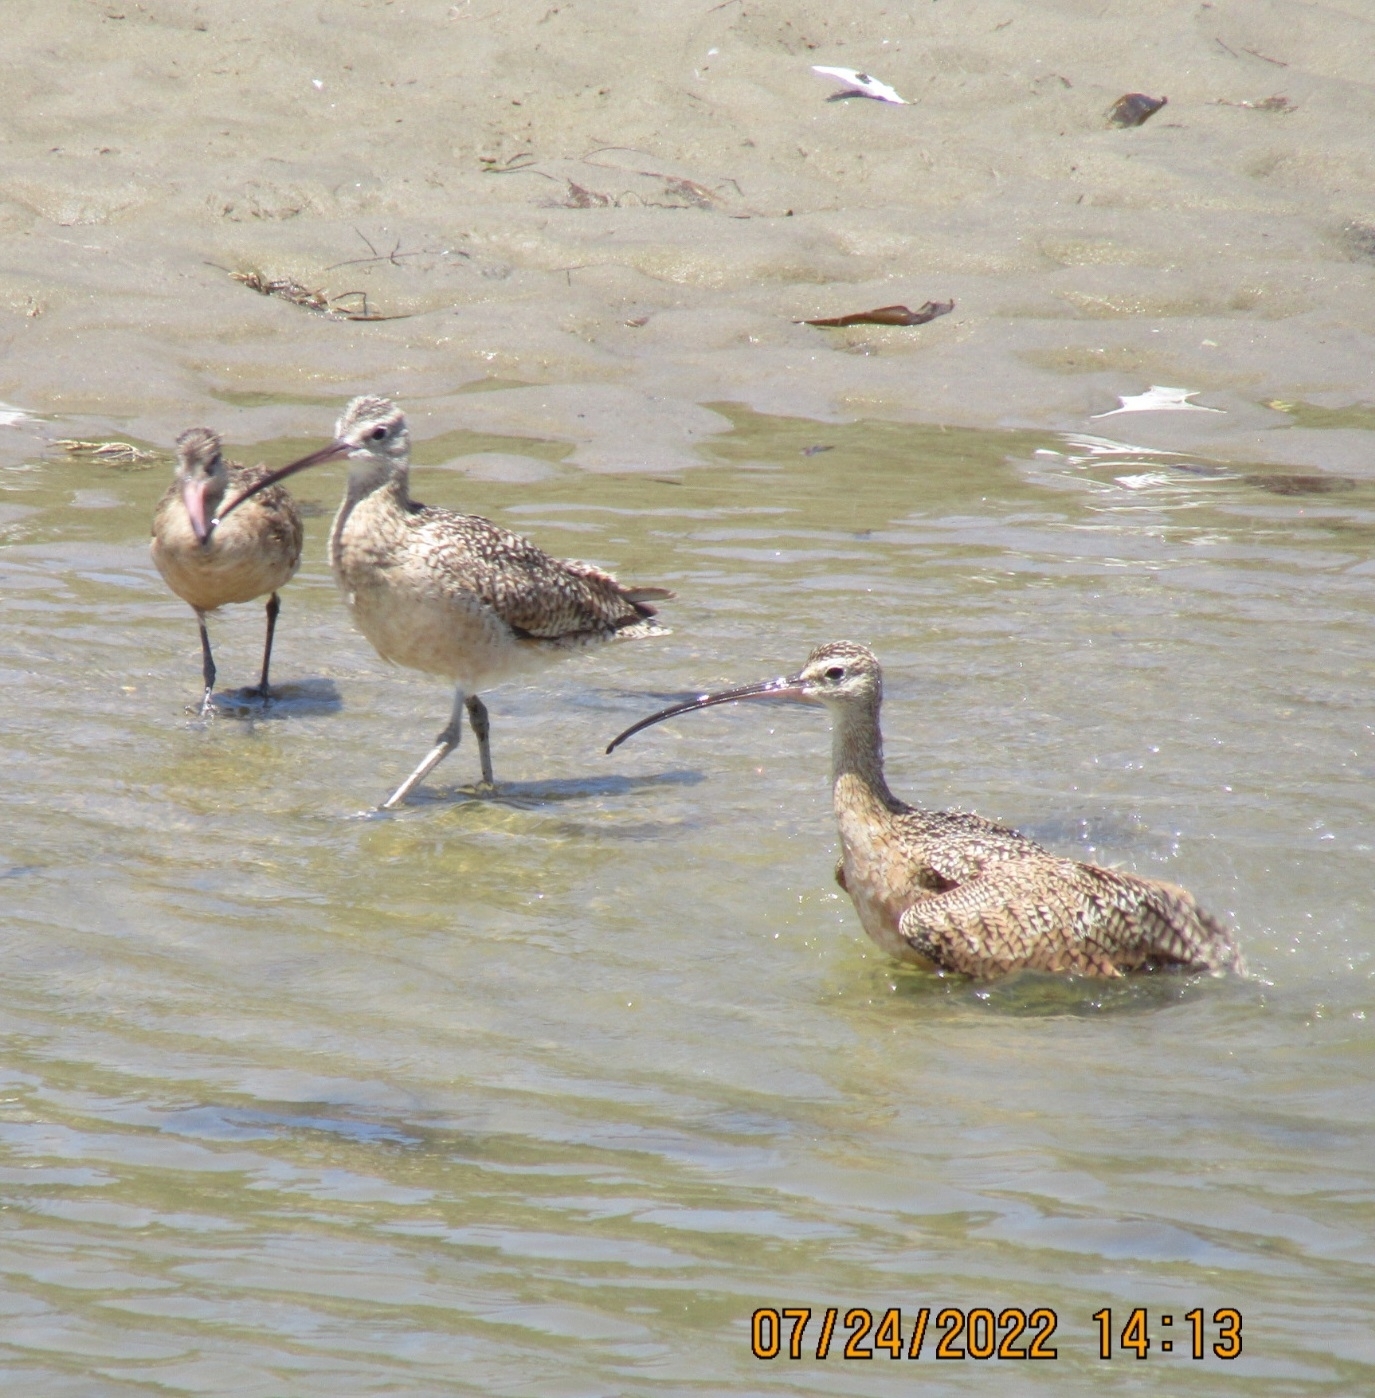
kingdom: Animalia
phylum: Chordata
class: Aves
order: Charadriiformes
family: Scolopacidae
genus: Numenius
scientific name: Numenius americanus
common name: Long-billed curlew
